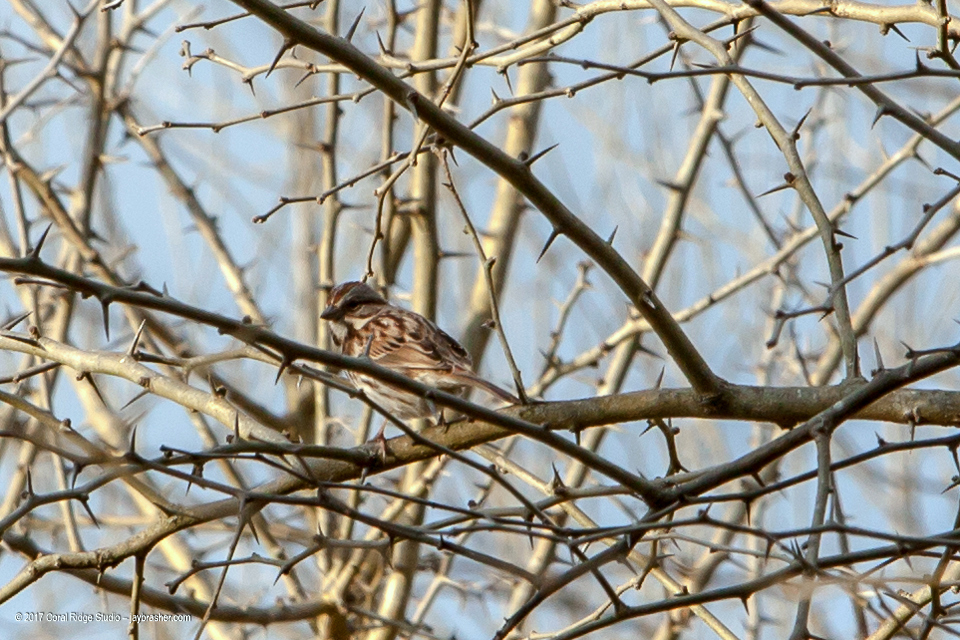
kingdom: Animalia
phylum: Chordata
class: Aves
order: Passeriformes
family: Passerellidae
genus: Melospiza
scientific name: Melospiza melodia
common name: Song sparrow
